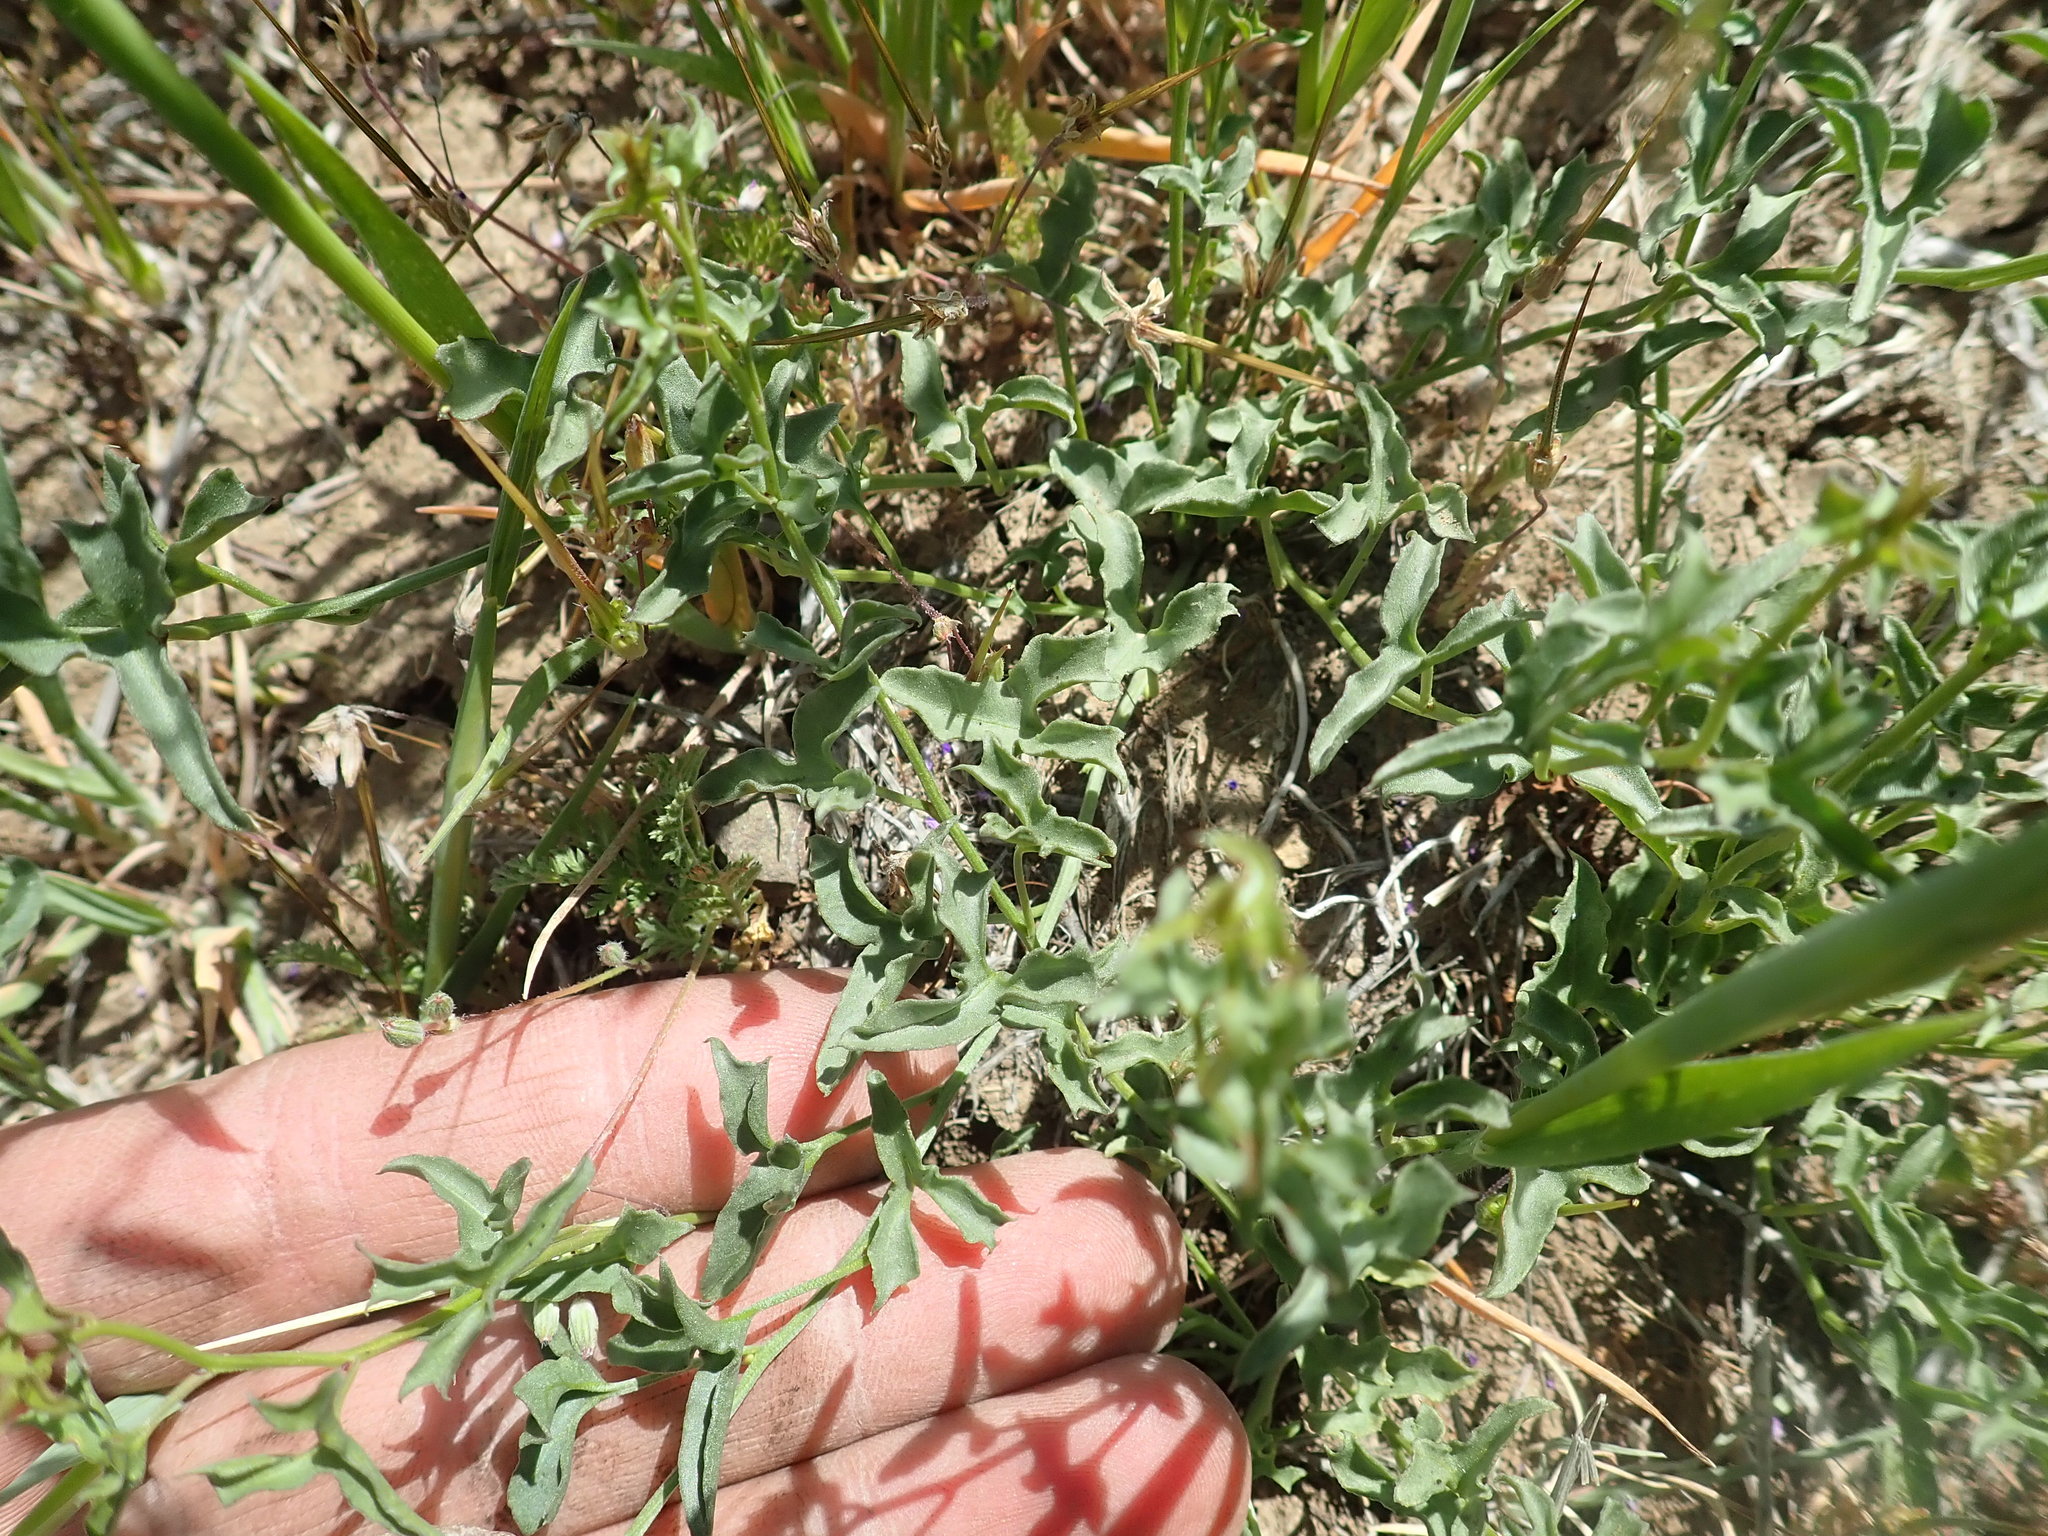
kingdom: Plantae
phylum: Tracheophyta
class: Magnoliopsida
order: Solanales
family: Convolvulaceae
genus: Calystegia
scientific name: Calystegia peirsonii
